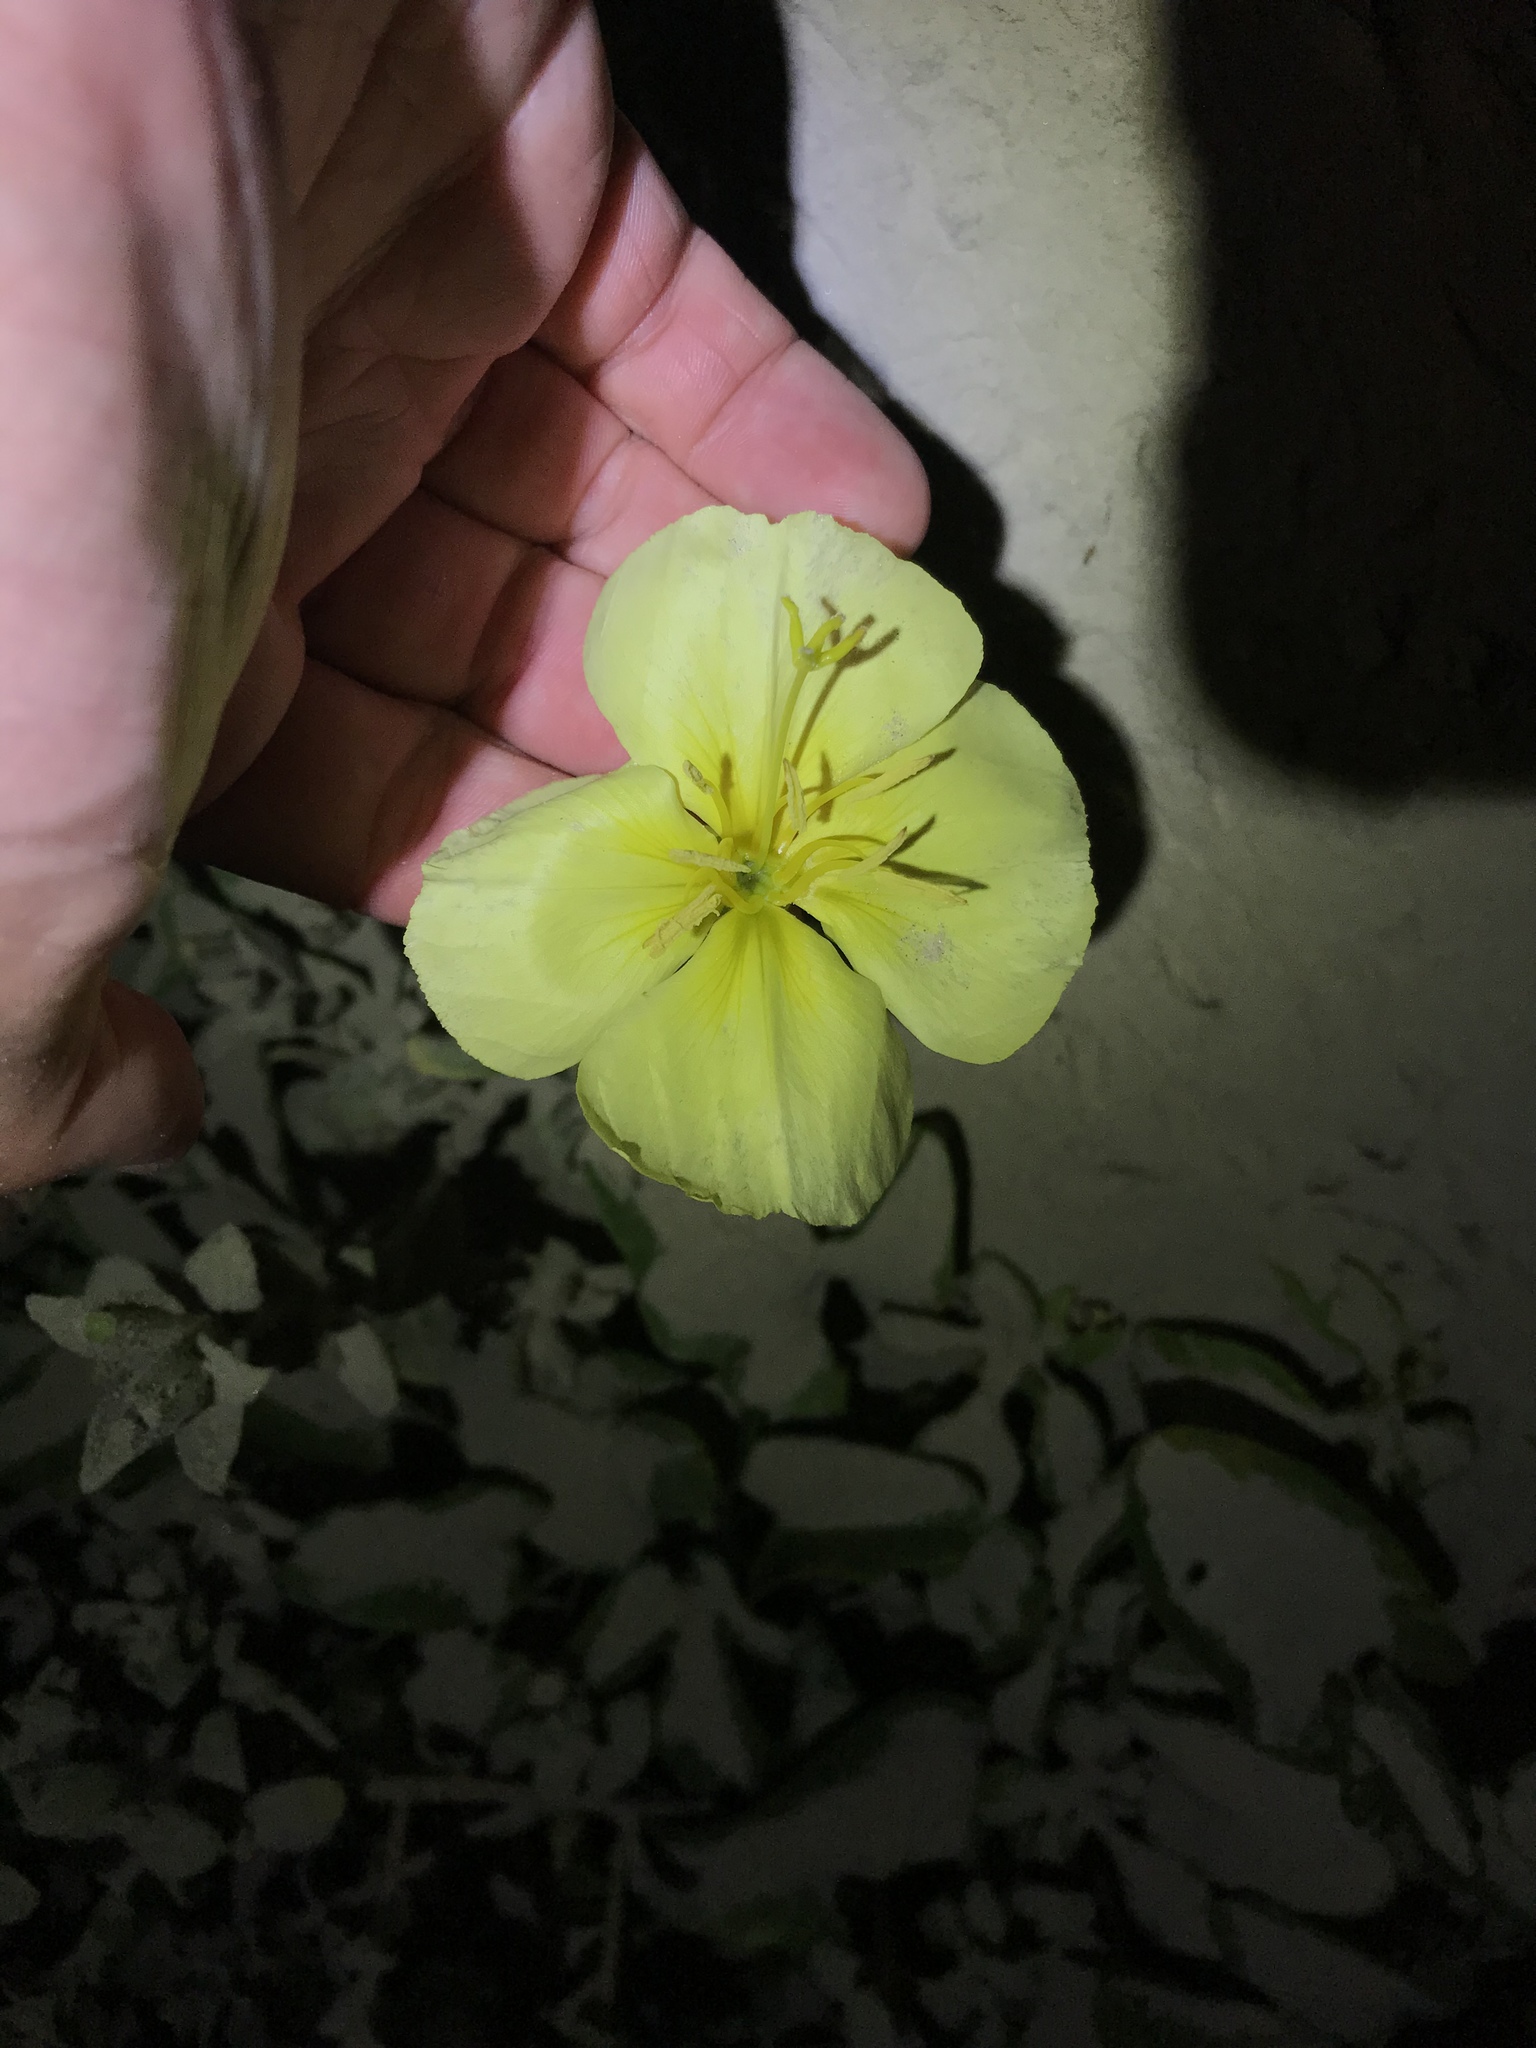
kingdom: Plantae
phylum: Tracheophyta
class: Magnoliopsida
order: Myrtales
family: Onagraceae
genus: Oenothera
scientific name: Oenothera drummondii
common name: Beach evening-primrose
